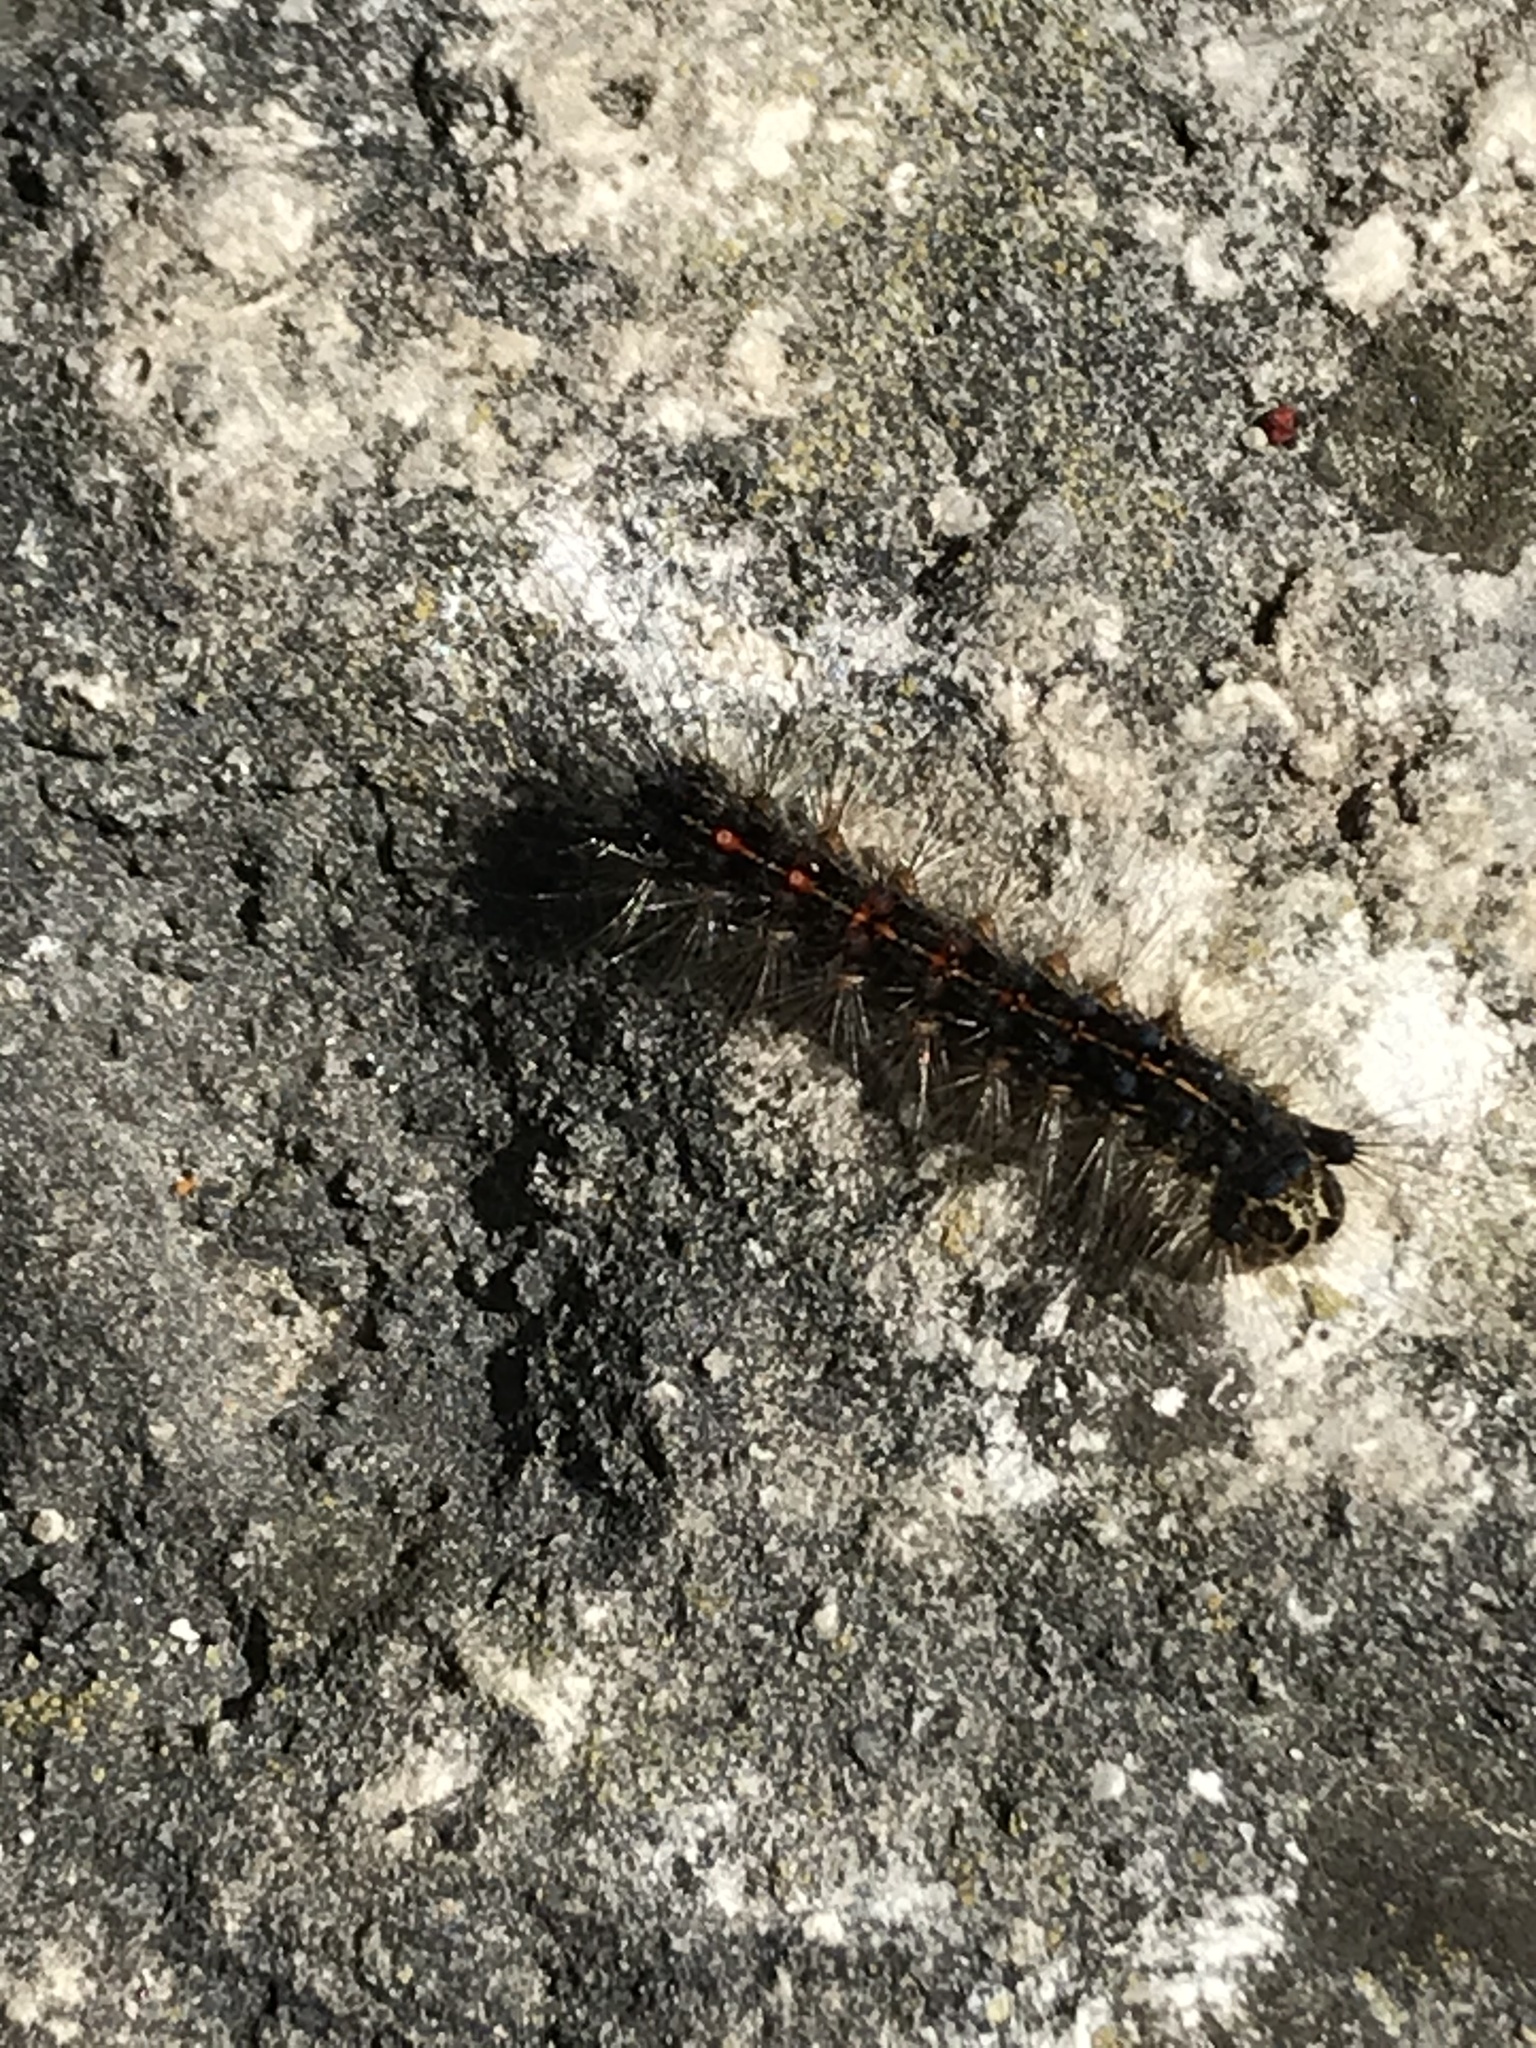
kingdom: Animalia
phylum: Arthropoda
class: Insecta
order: Lepidoptera
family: Erebidae
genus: Lymantria
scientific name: Lymantria dispar
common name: Gypsy moth
